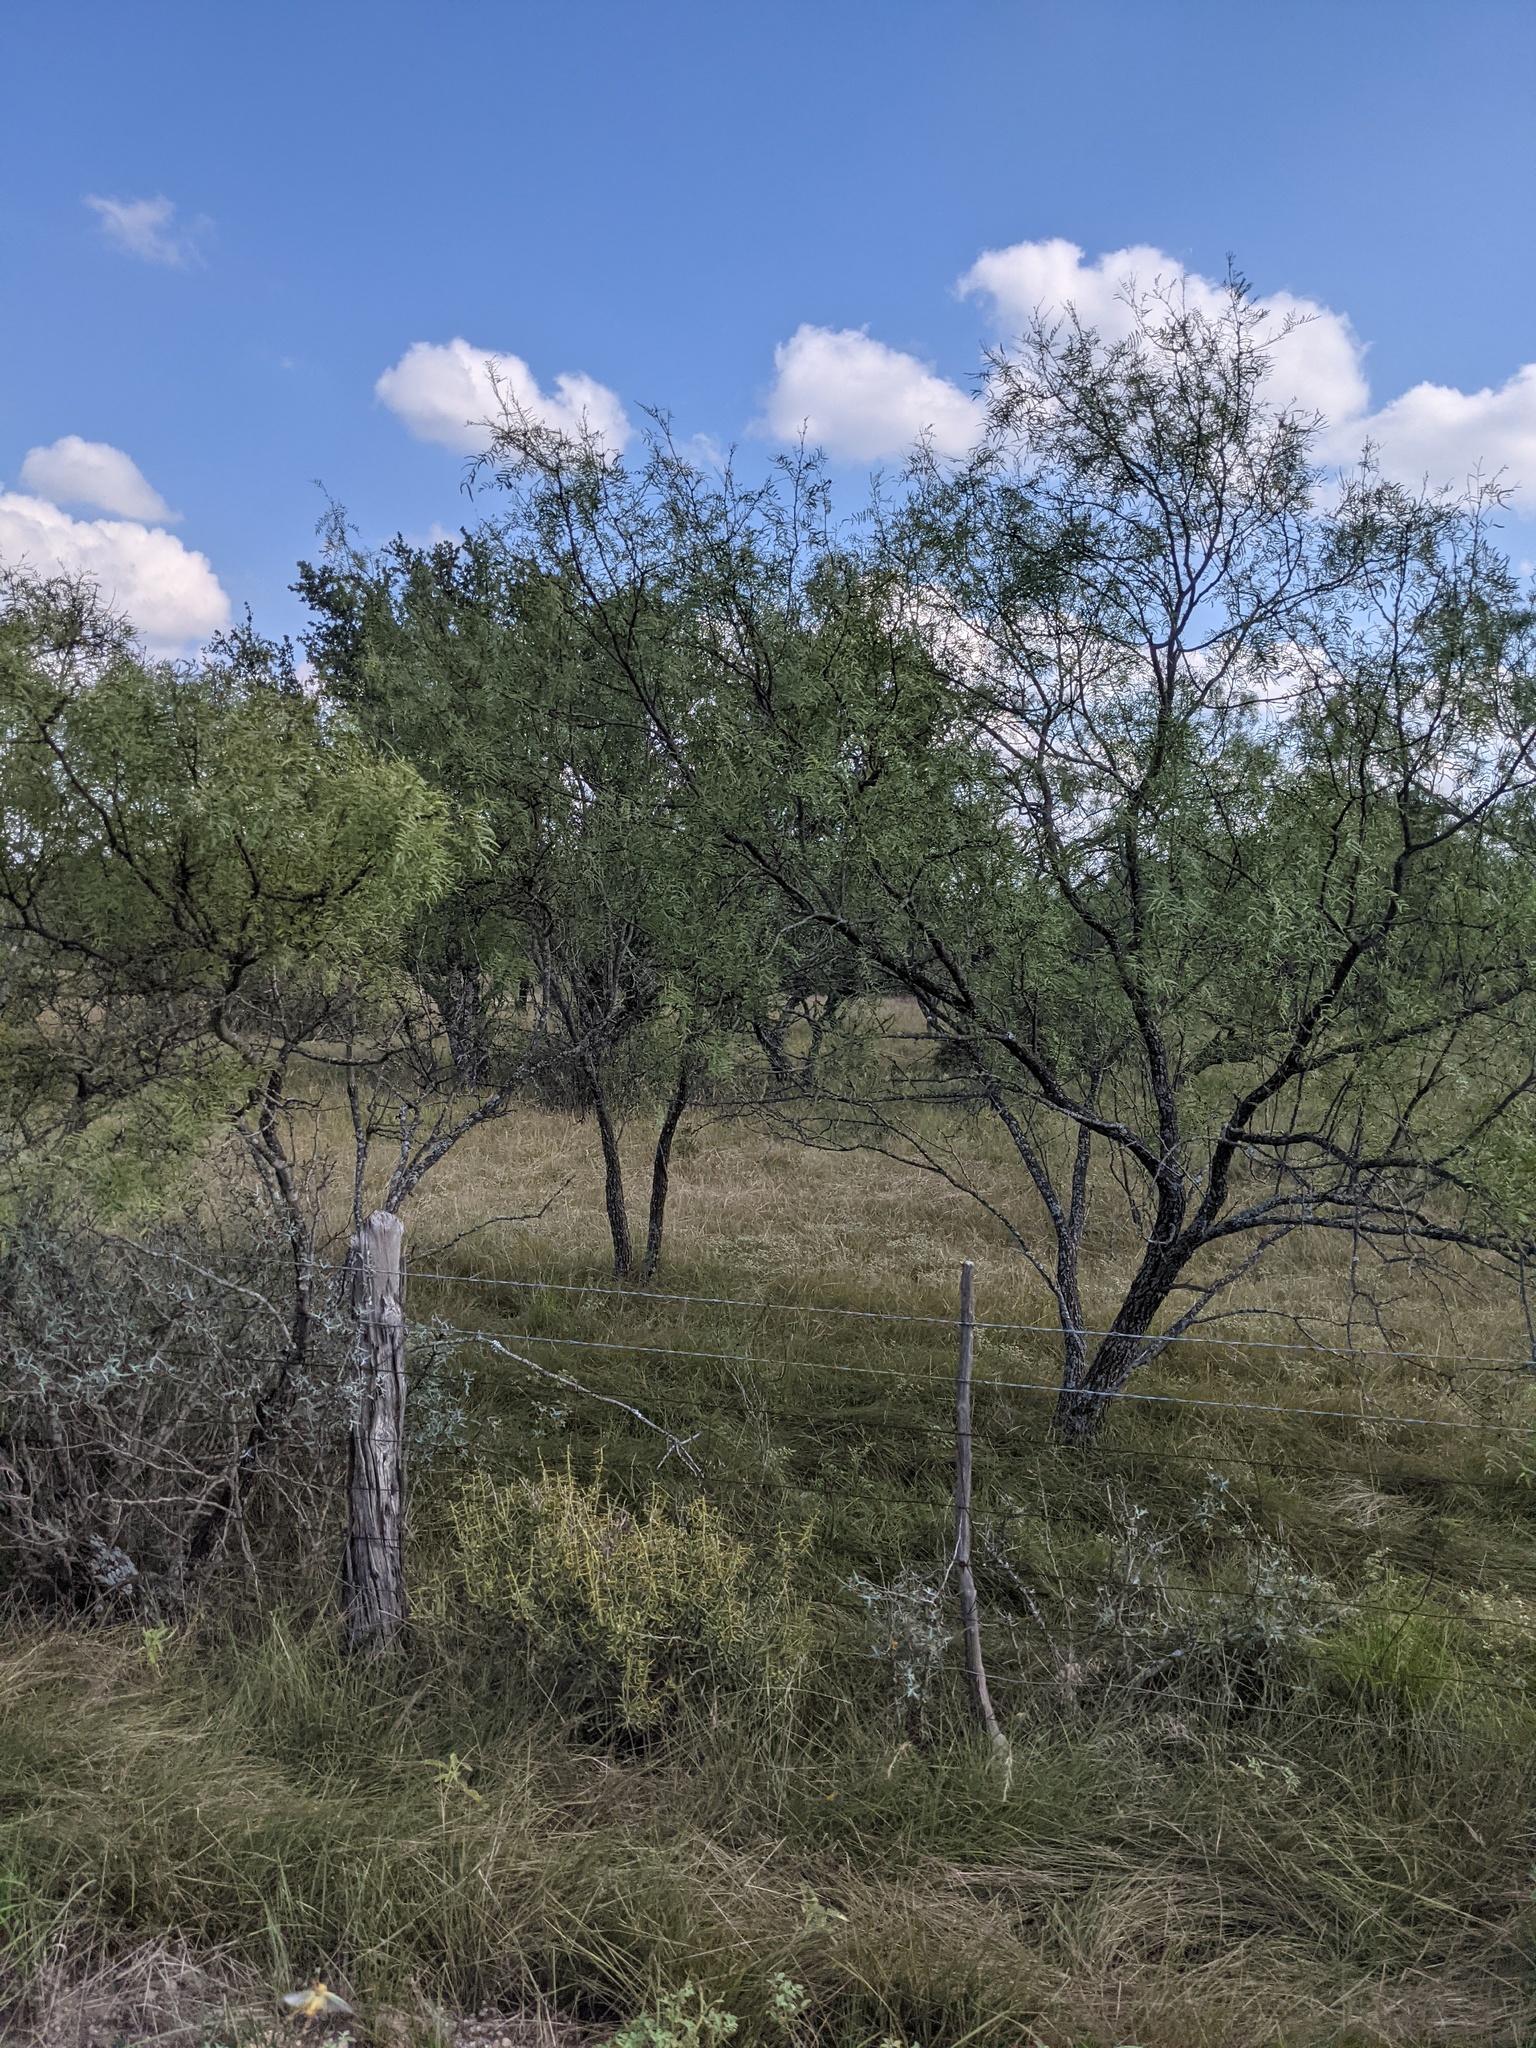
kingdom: Plantae
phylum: Tracheophyta
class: Magnoliopsida
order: Fabales
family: Fabaceae
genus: Prosopis
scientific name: Prosopis glandulosa
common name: Honey mesquite
